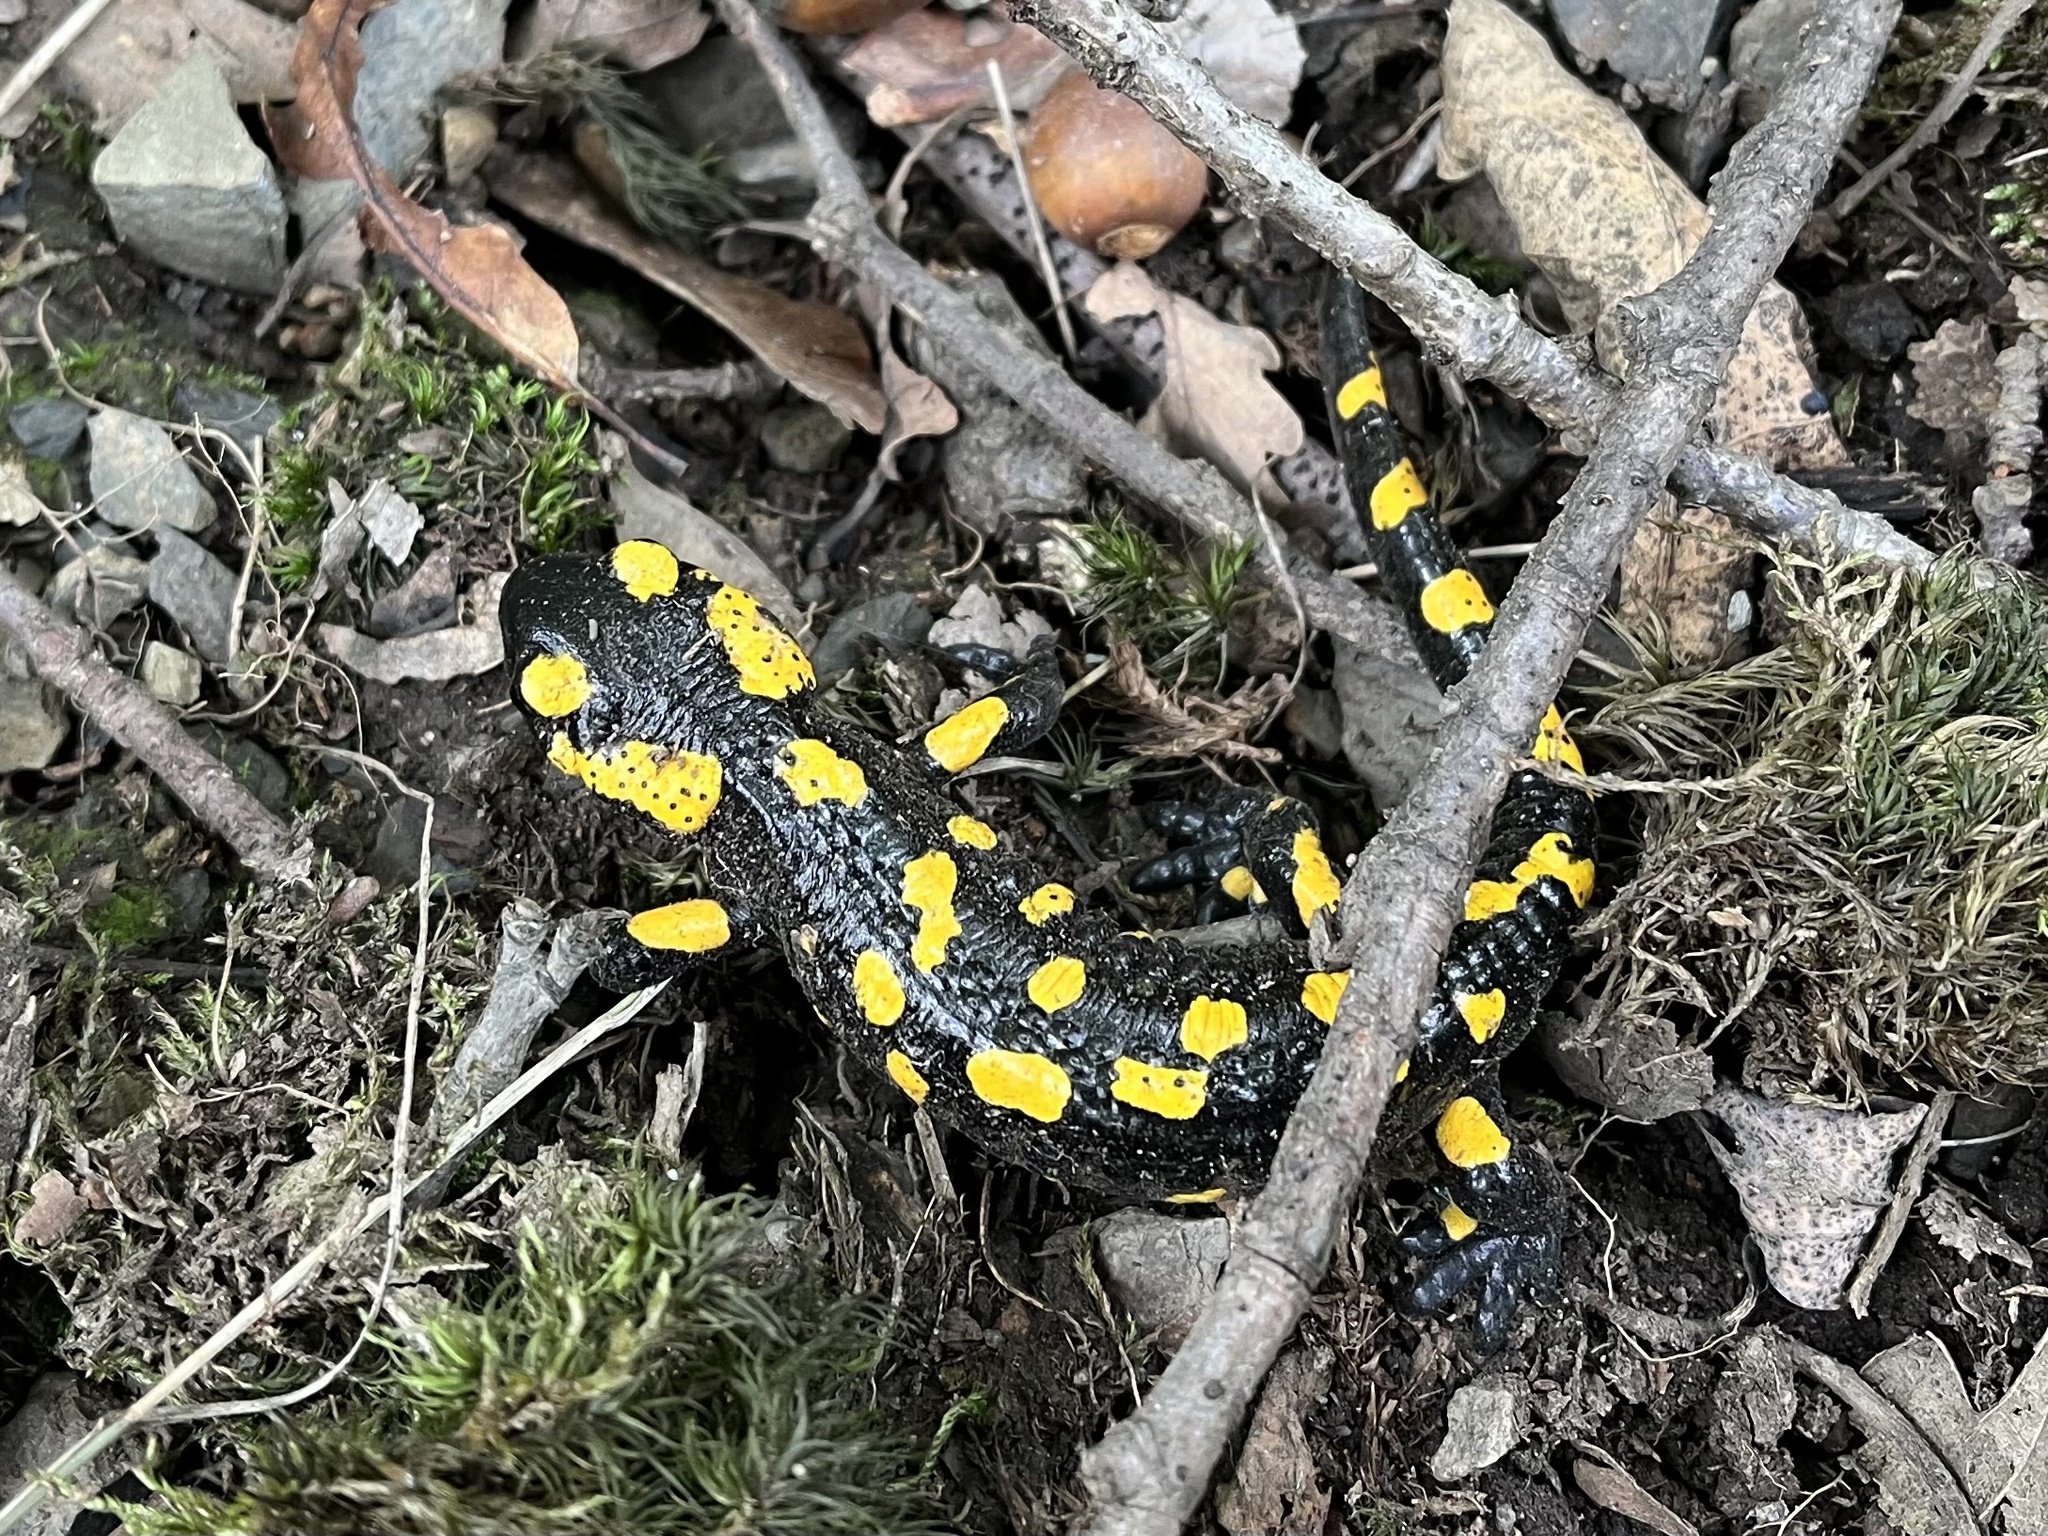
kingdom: Animalia
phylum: Chordata
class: Amphibia
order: Caudata
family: Salamandridae
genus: Salamandra
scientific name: Salamandra salamandra
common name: Fire salamander
